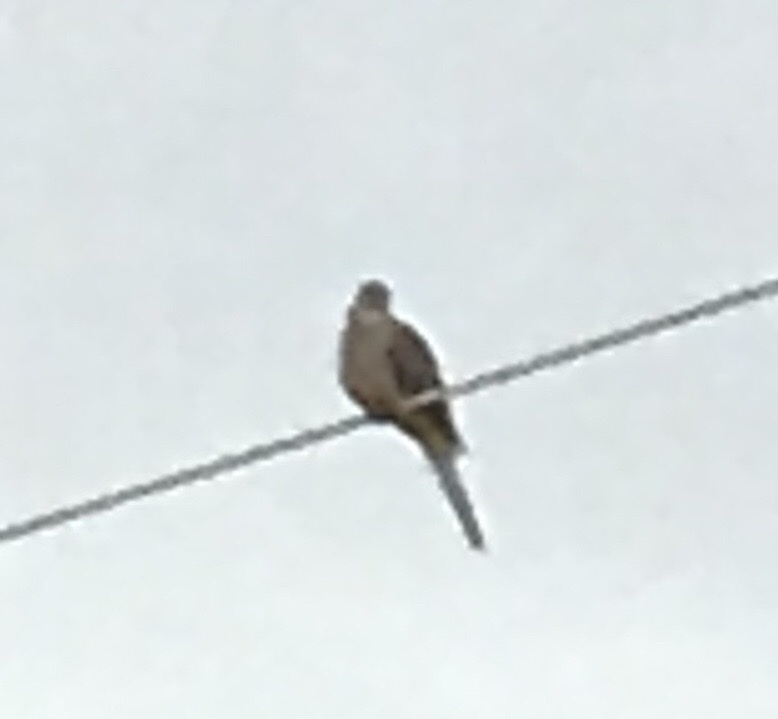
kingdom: Animalia
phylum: Chordata
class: Aves
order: Columbiformes
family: Columbidae
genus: Zenaida
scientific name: Zenaida macroura
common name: Mourning dove
